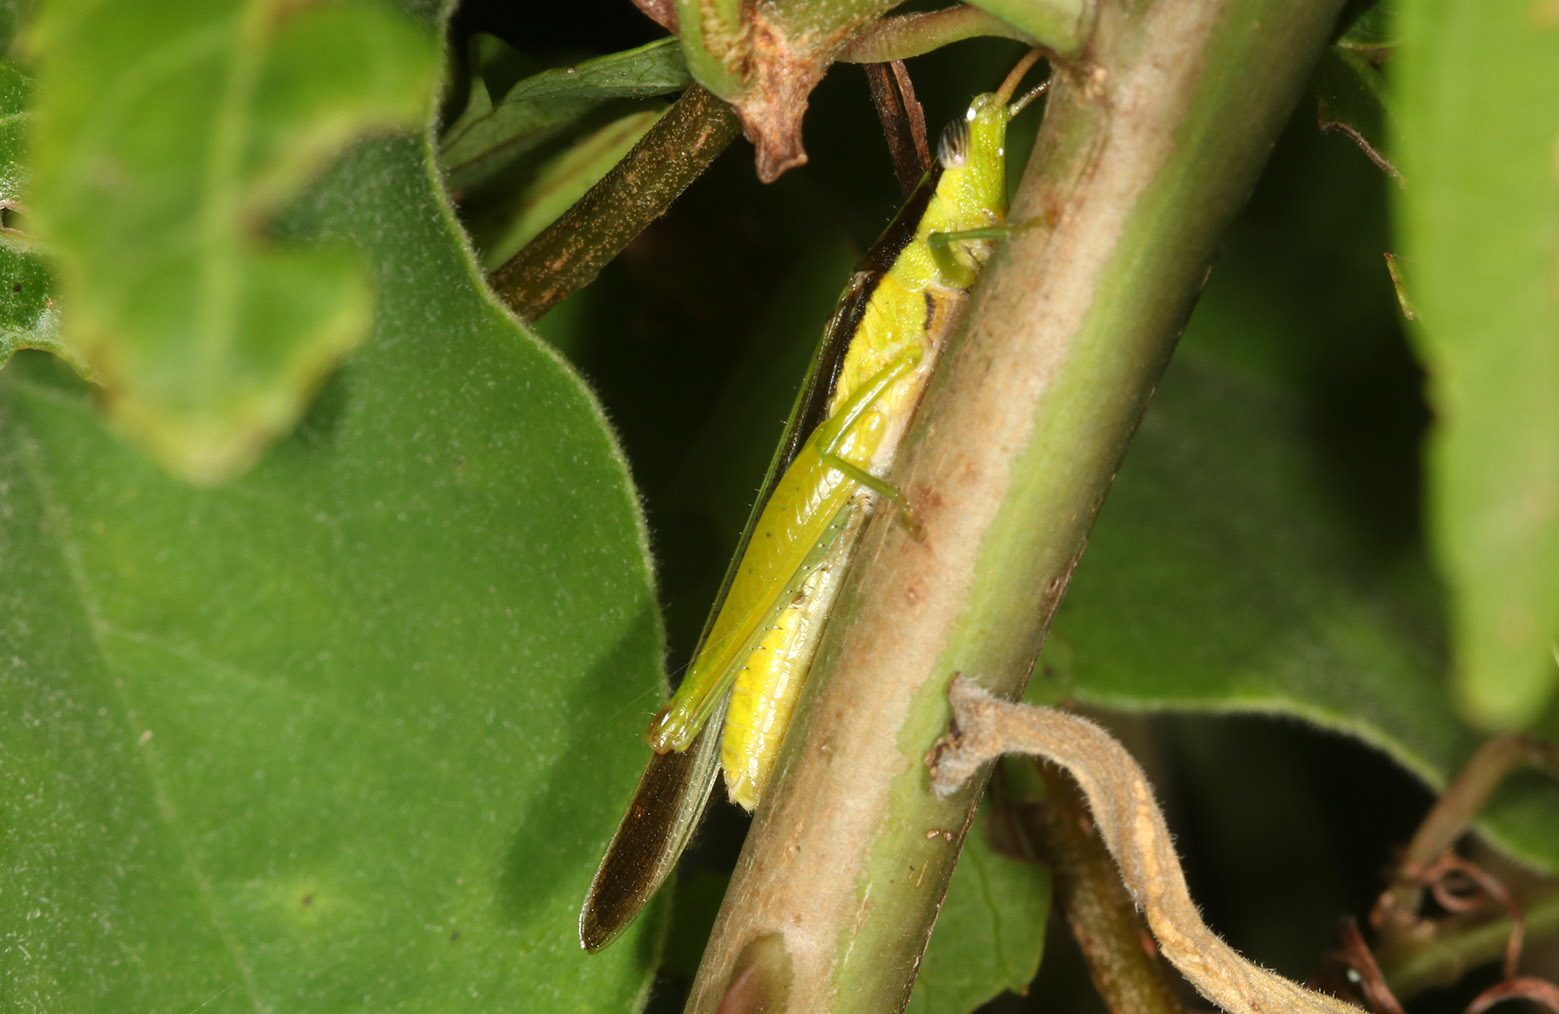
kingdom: Animalia
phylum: Arthropoda
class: Insecta
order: Orthoptera
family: Acrididae
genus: Stenopola
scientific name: Stenopola pallida
